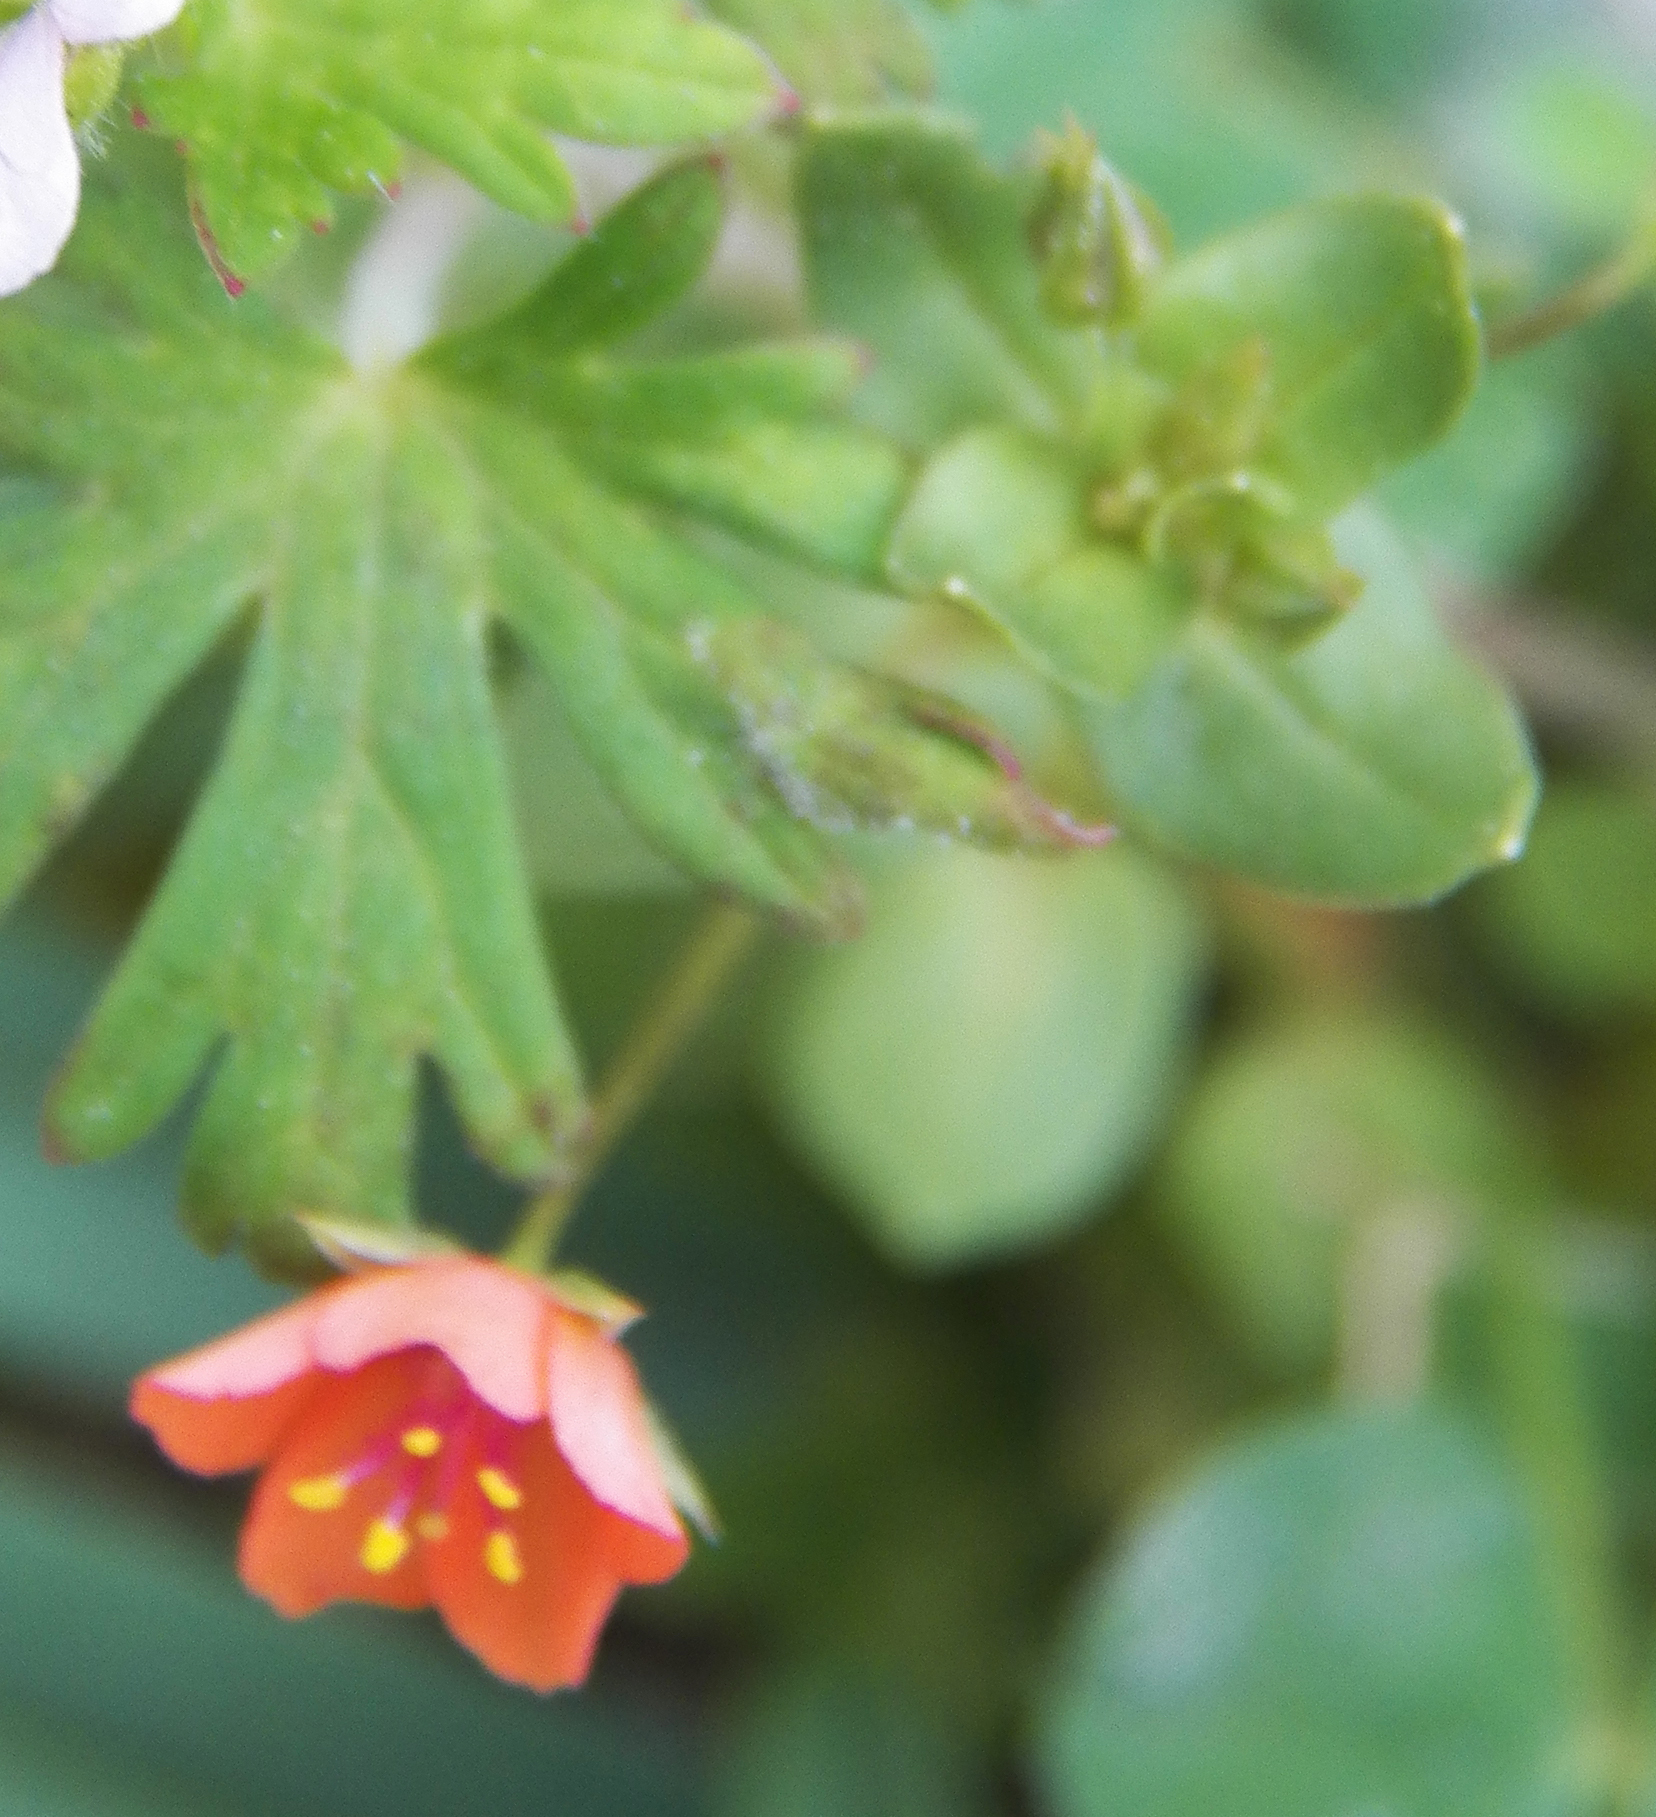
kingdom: Plantae
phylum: Tracheophyta
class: Magnoliopsida
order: Ericales
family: Primulaceae
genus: Lysimachia
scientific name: Lysimachia arvensis
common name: Scarlet pimpernel
